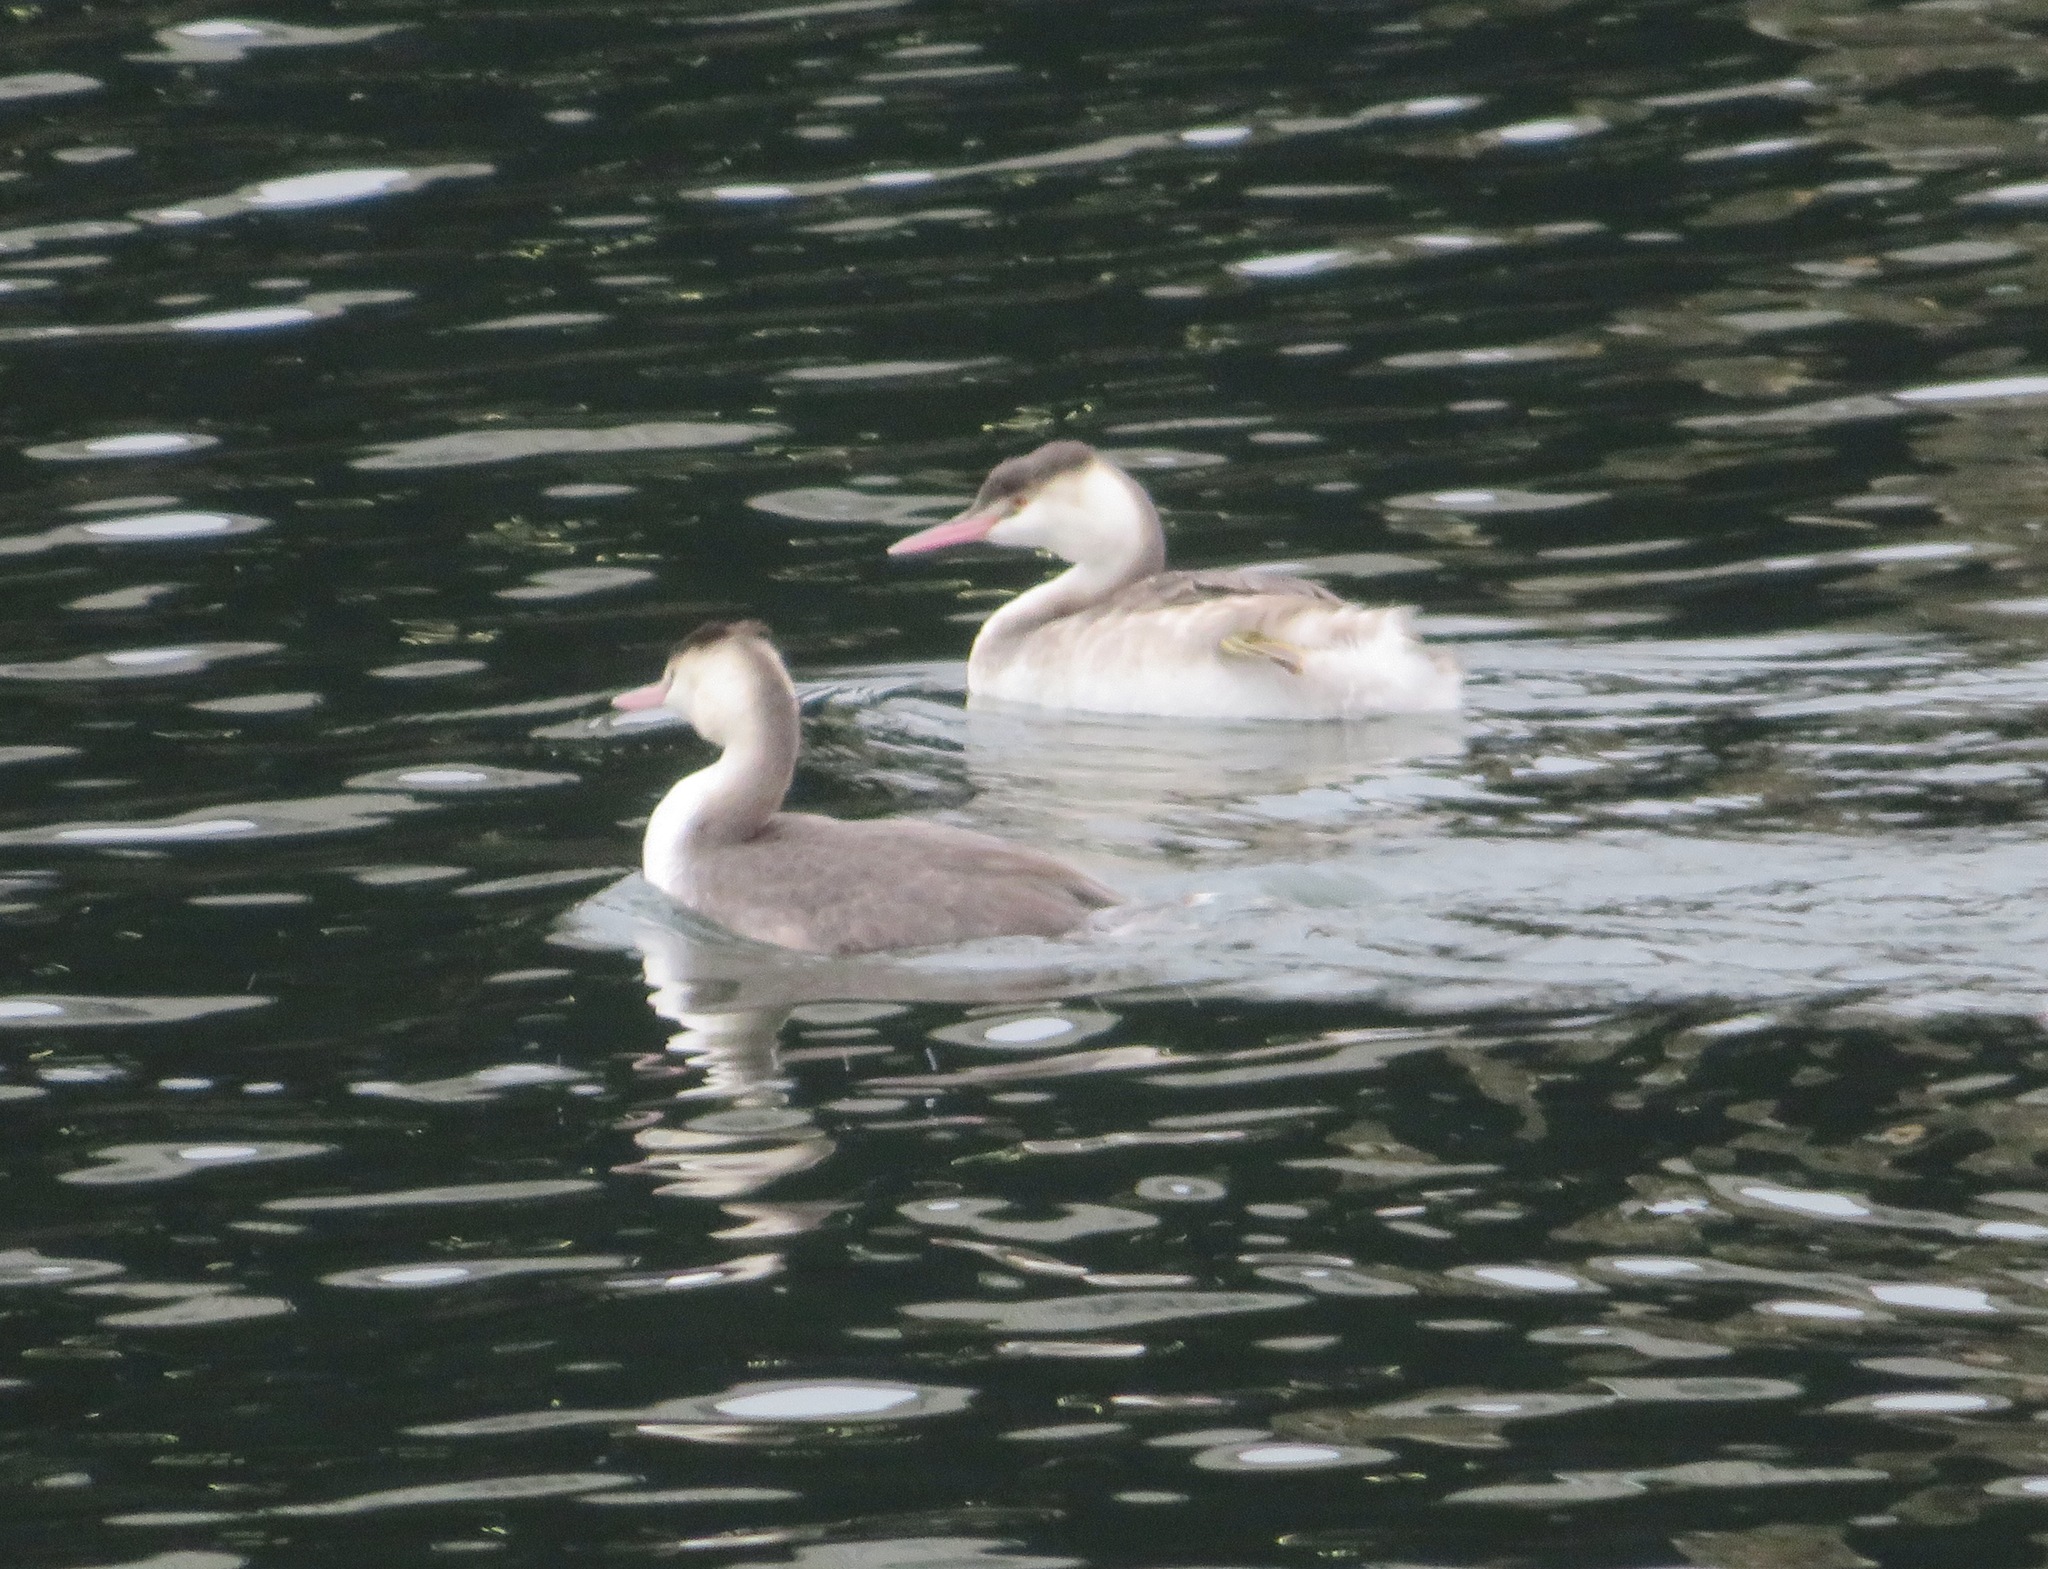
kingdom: Animalia
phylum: Chordata
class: Aves
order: Podicipediformes
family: Podicipedidae
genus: Podiceps
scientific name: Podiceps cristatus
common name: Great crested grebe
